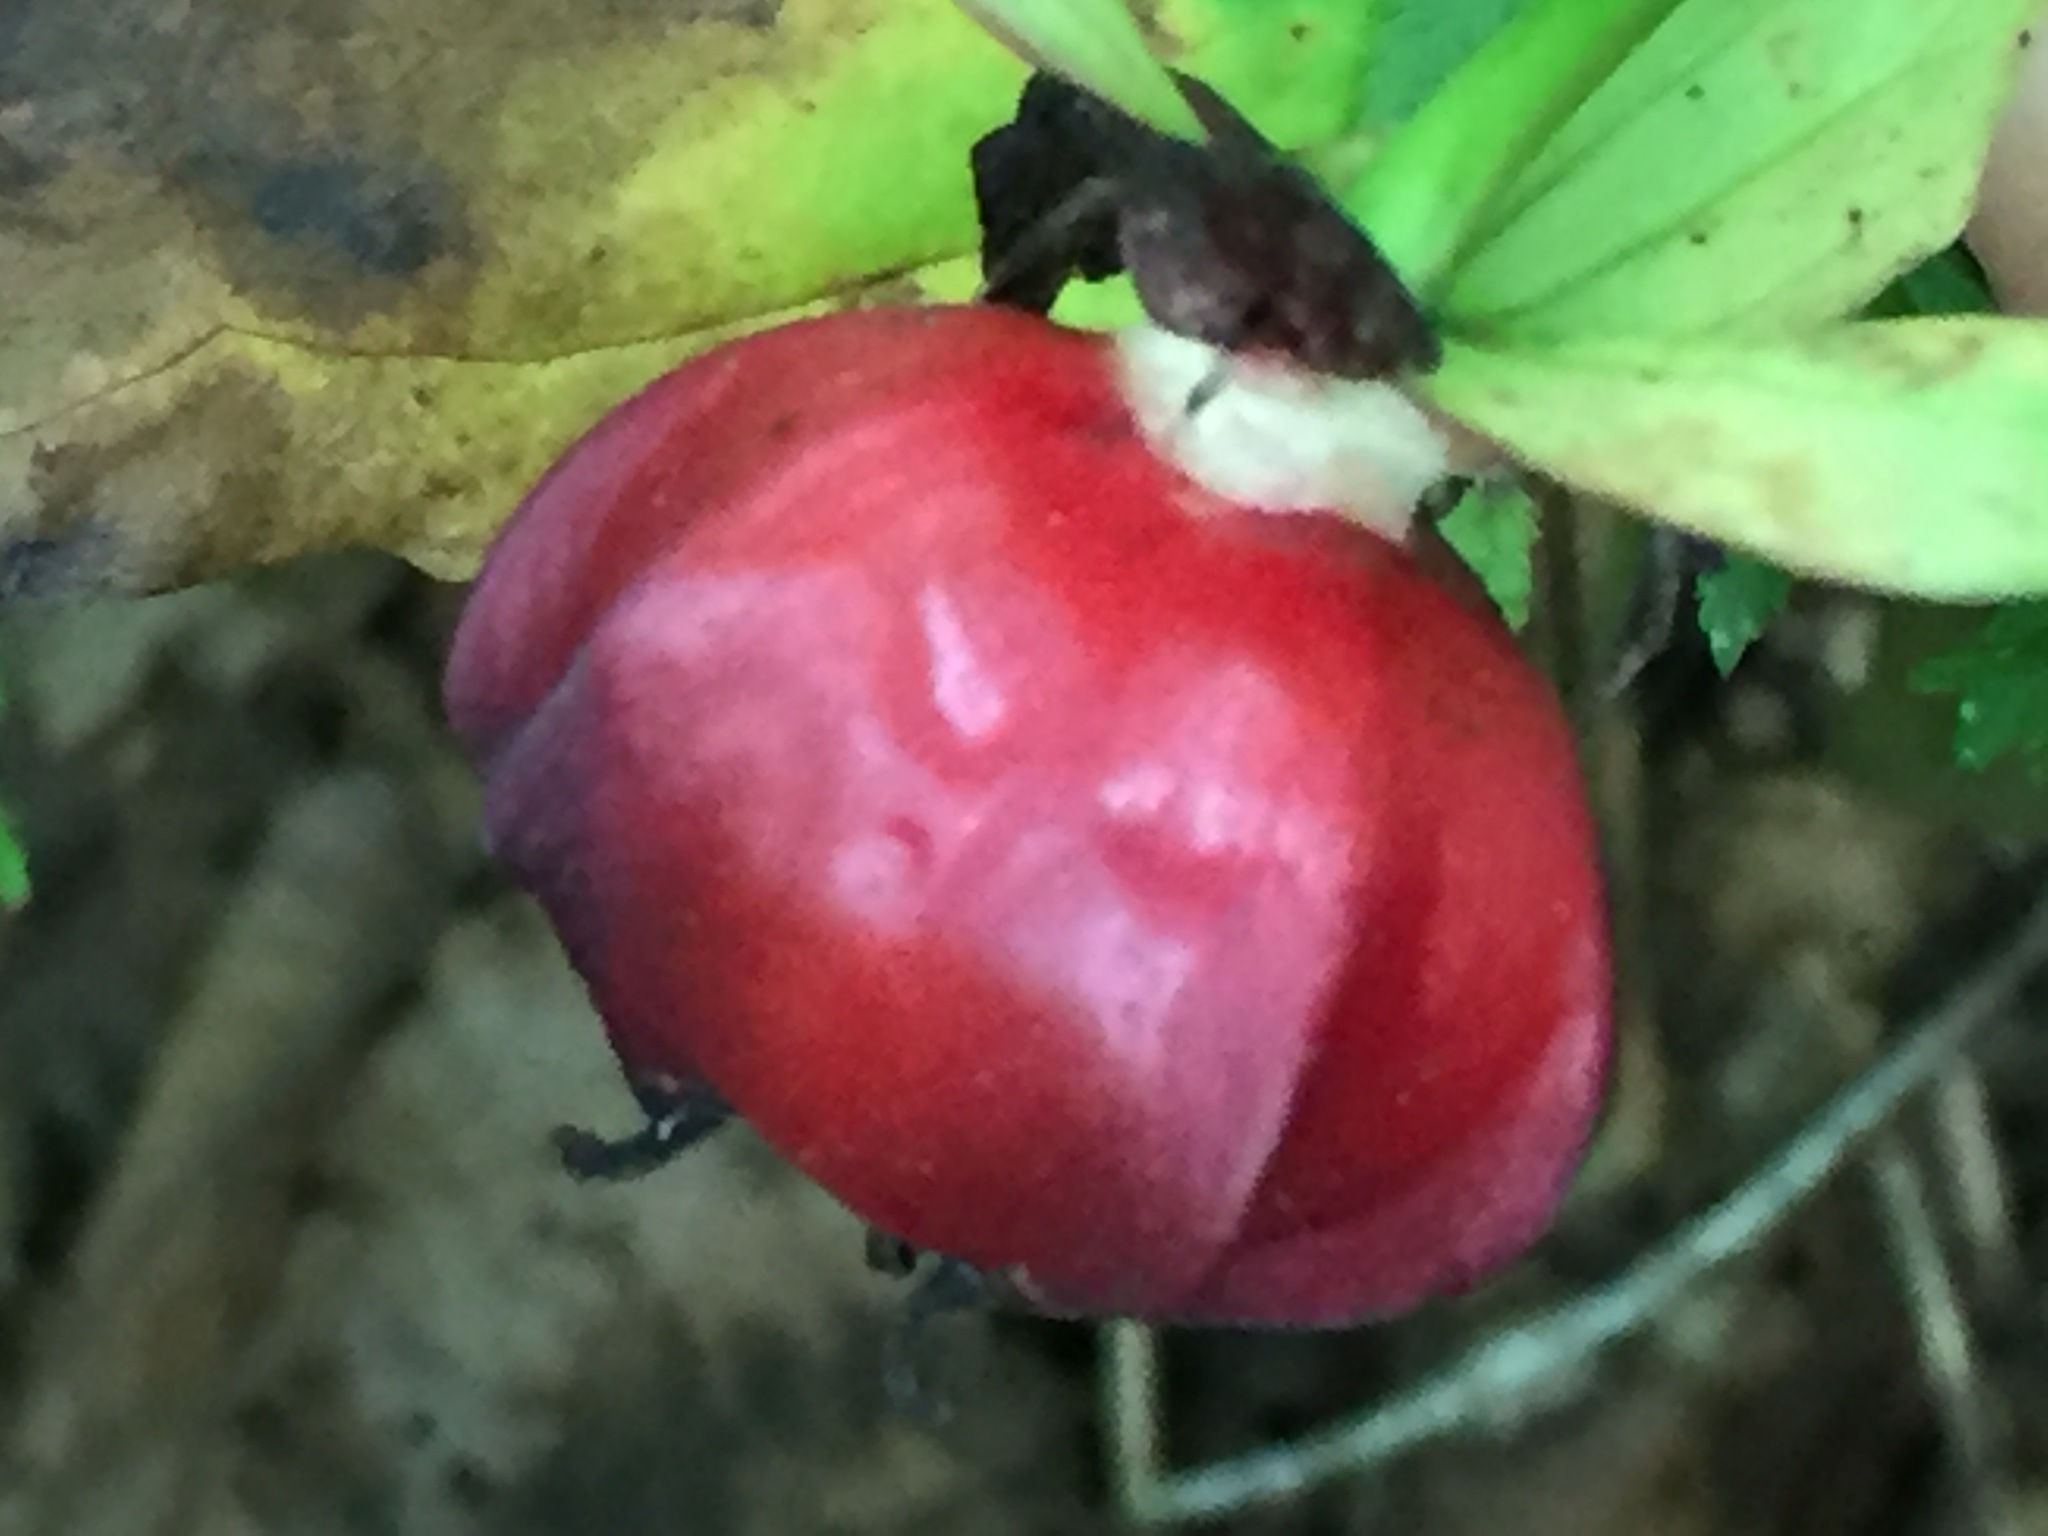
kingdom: Plantae
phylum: Tracheophyta
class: Liliopsida
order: Liliales
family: Melanthiaceae
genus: Trillium
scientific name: Trillium erectum
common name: Purple trillium
